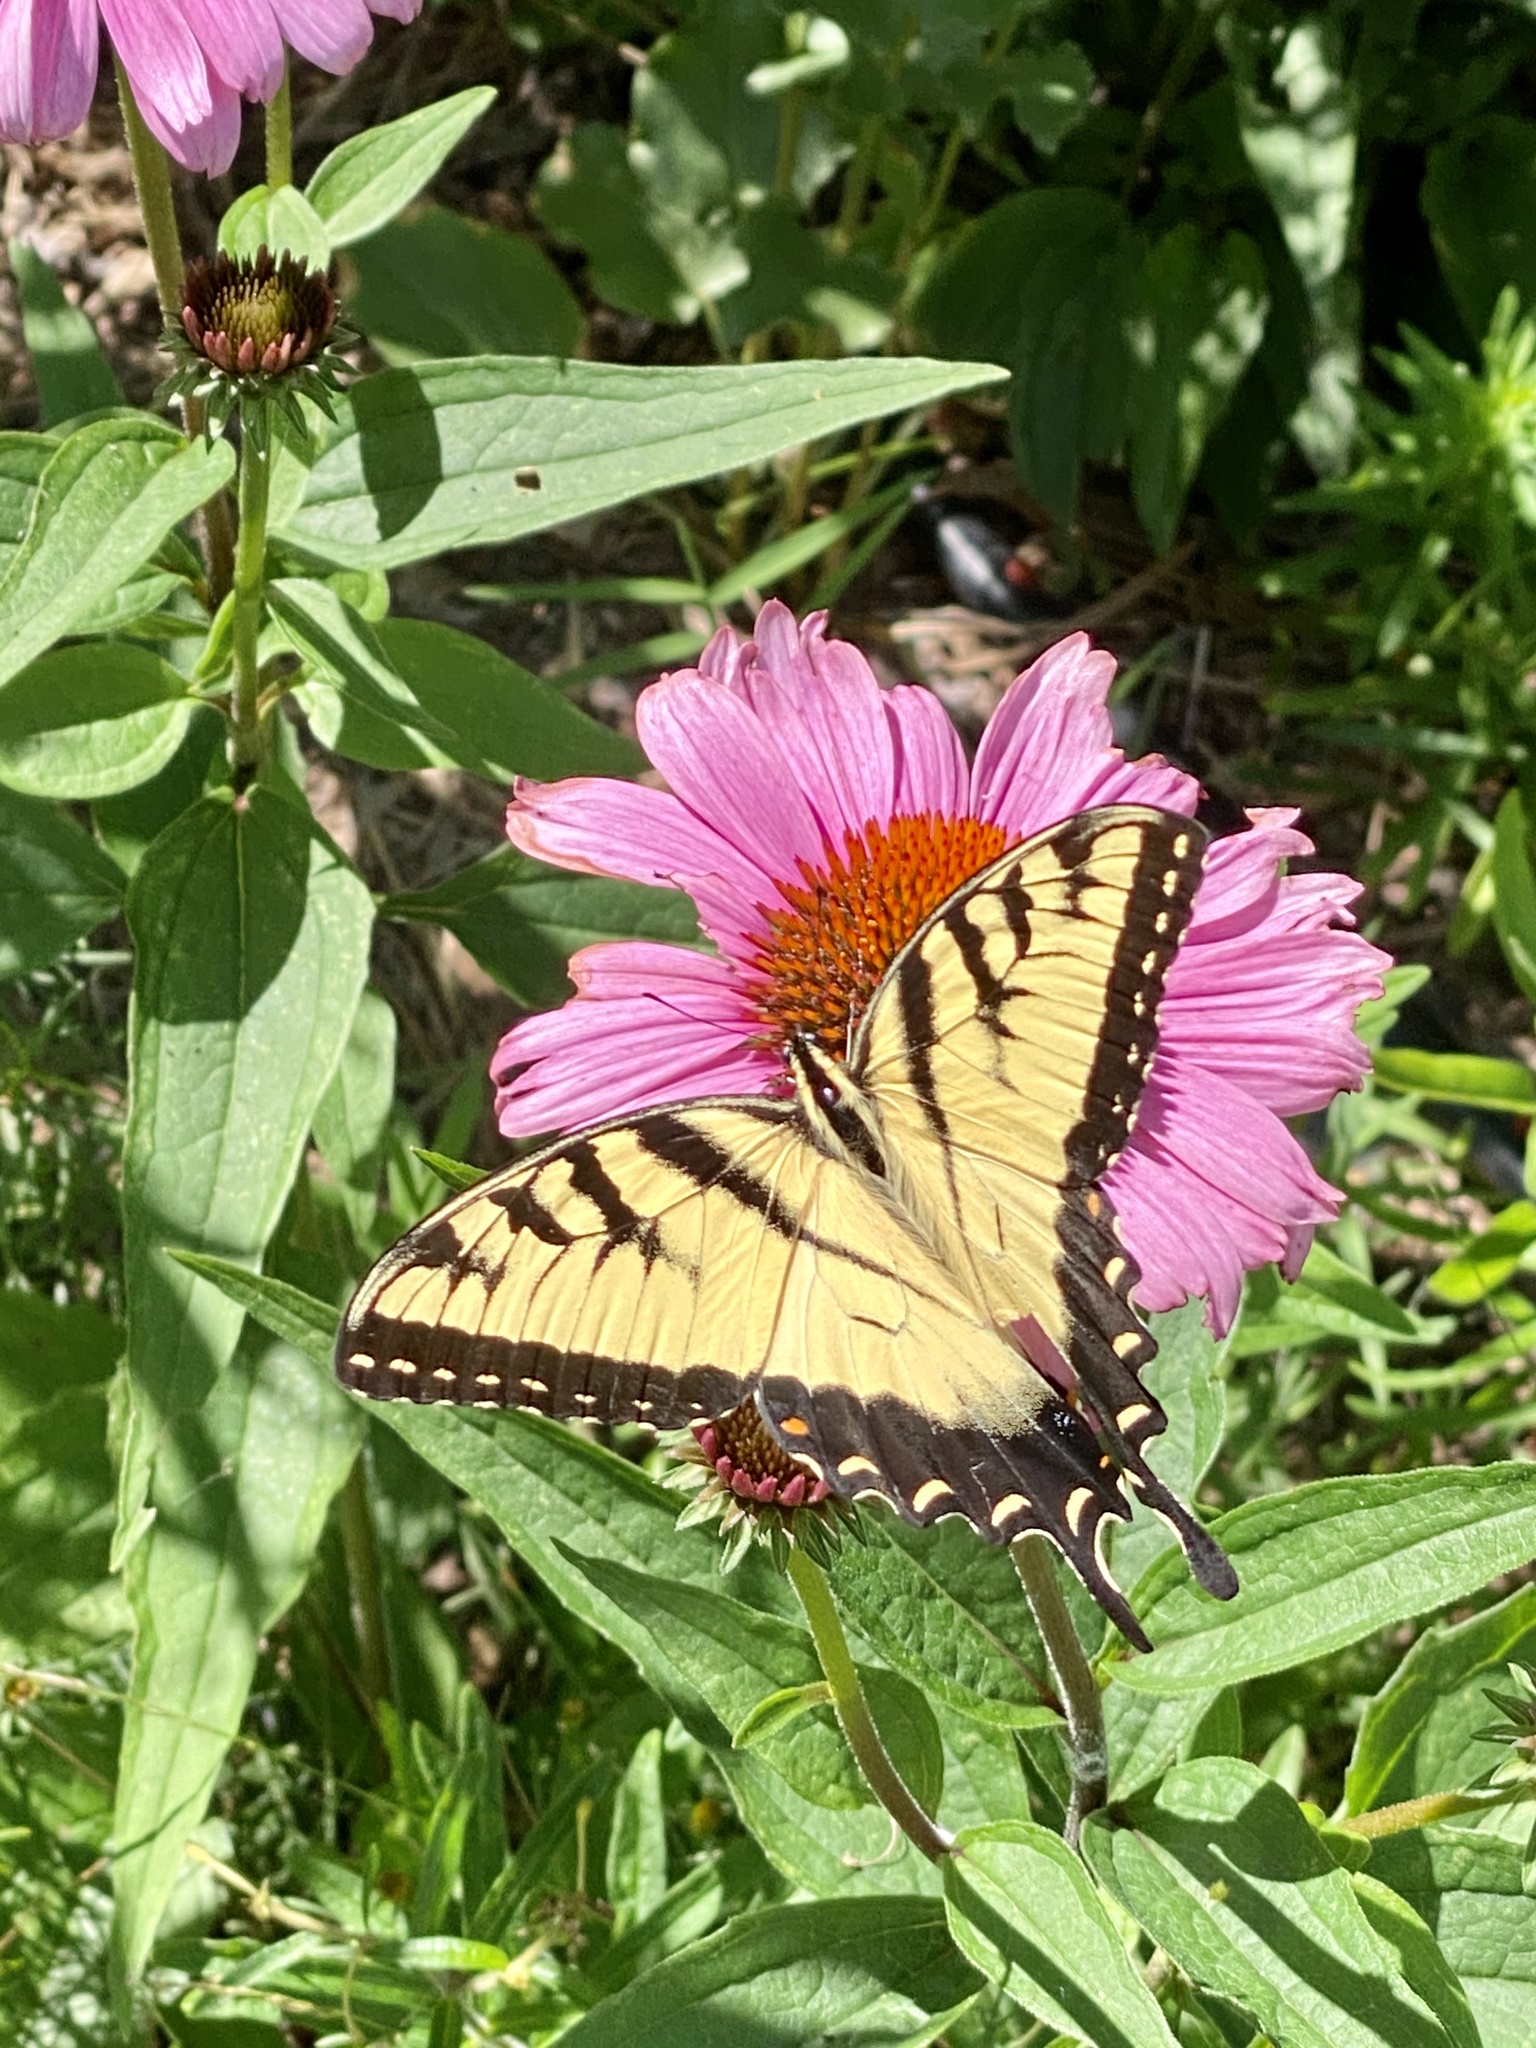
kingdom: Animalia
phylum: Arthropoda
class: Insecta
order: Lepidoptera
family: Papilionidae
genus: Papilio
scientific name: Papilio glaucus
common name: Tiger swallowtail
